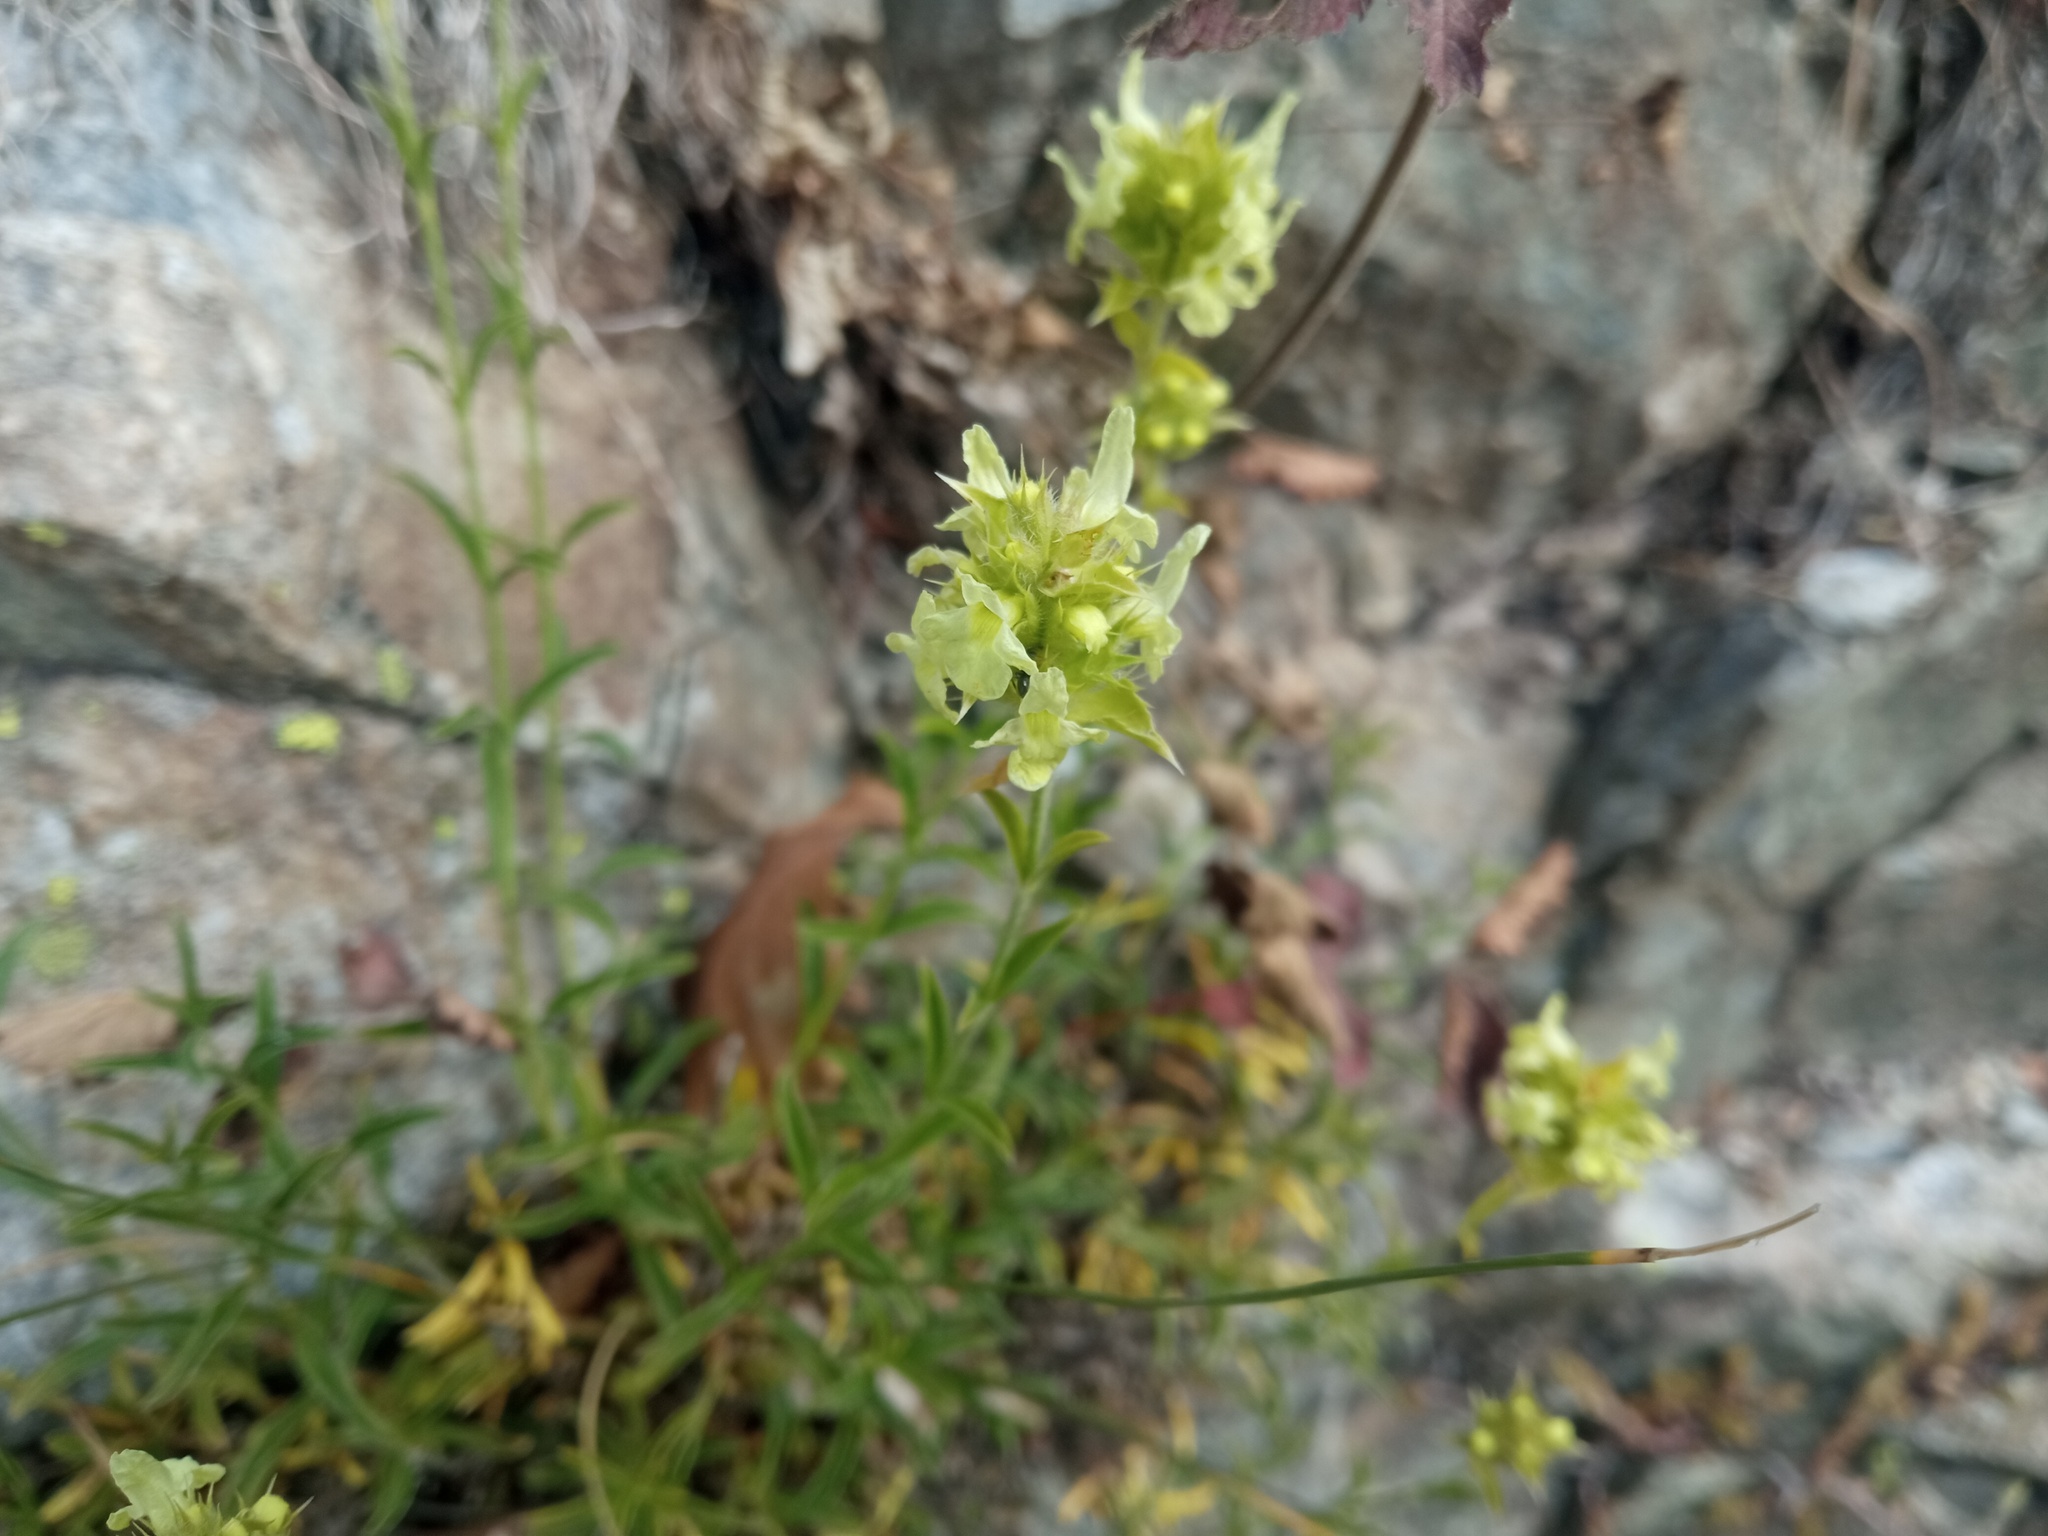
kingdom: Plantae
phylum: Tracheophyta
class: Magnoliopsida
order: Lamiales
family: Lamiaceae
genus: Sideritis
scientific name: Sideritis hyssopifolia
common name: Mountain tea
